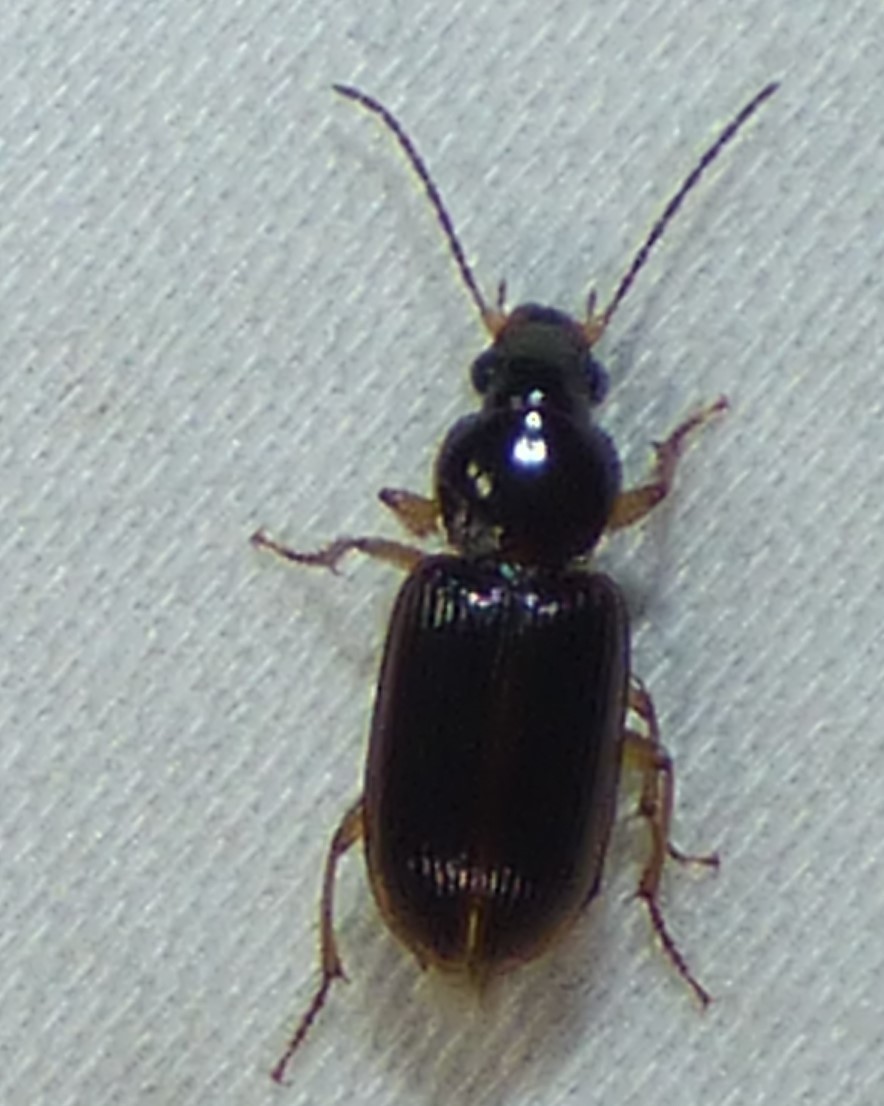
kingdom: Animalia
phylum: Arthropoda
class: Insecta
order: Coleoptera
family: Carabidae
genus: Stenolophus
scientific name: Stenolophus ochropezus
